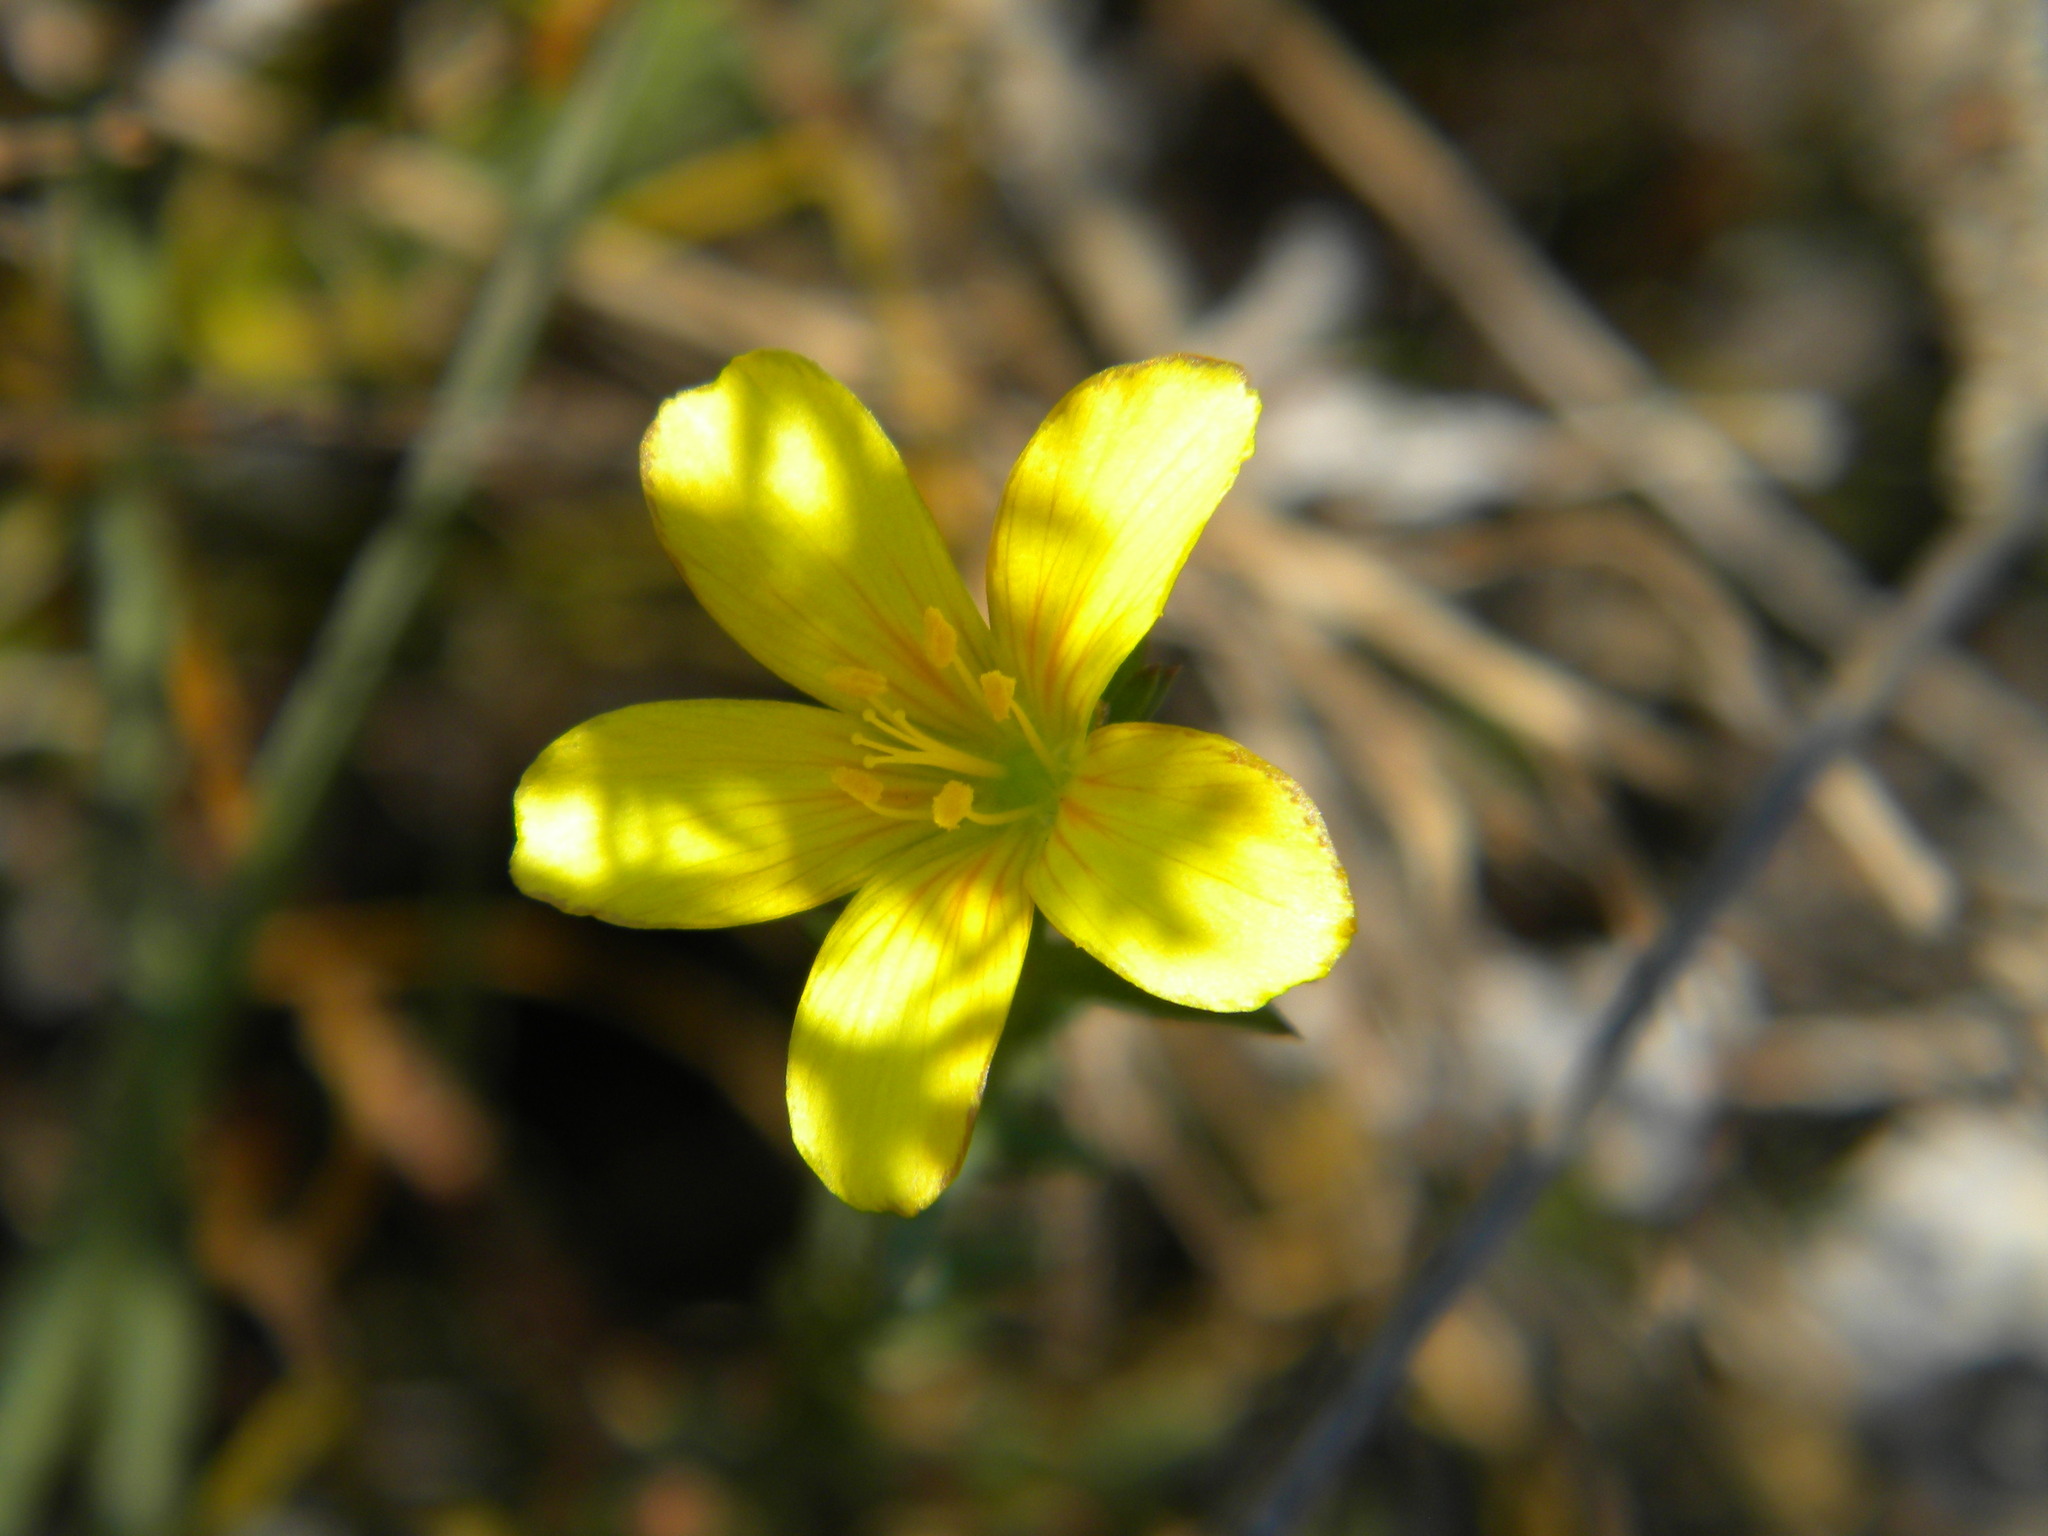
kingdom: Plantae
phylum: Tracheophyta
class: Magnoliopsida
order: Malpighiales
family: Linaceae
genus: Linum
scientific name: Linum africanum
